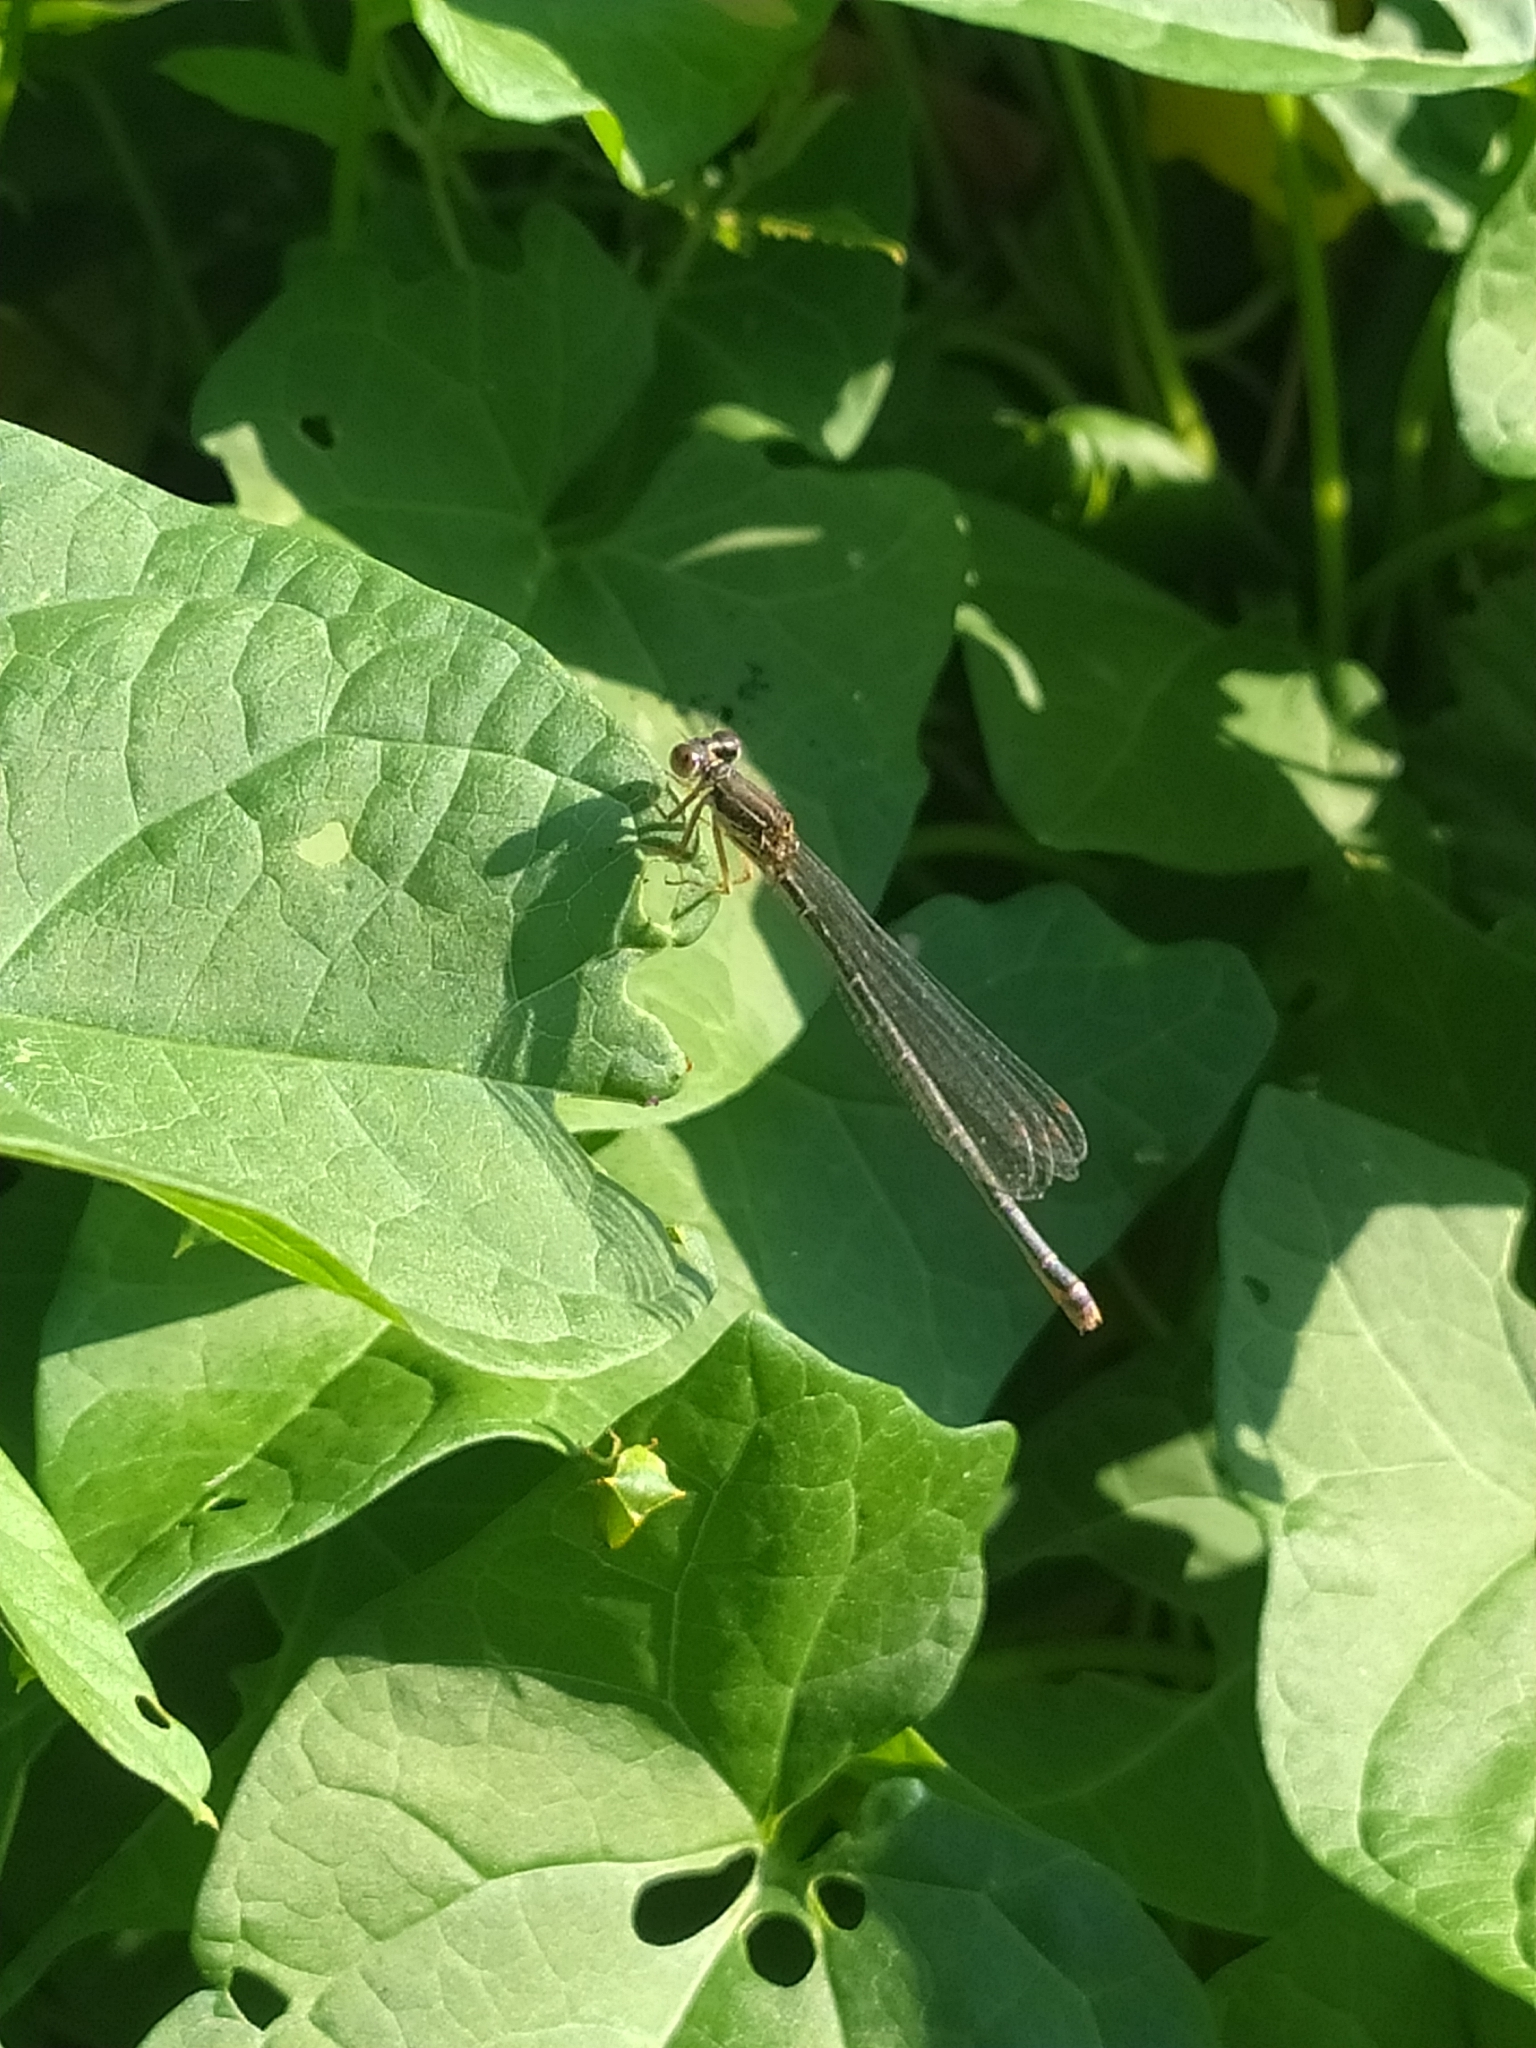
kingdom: Animalia
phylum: Arthropoda
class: Insecta
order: Odonata
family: Coenagrionidae
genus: Ceriagrion
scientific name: Ceriagrion tenellum
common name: Small red damselfly
